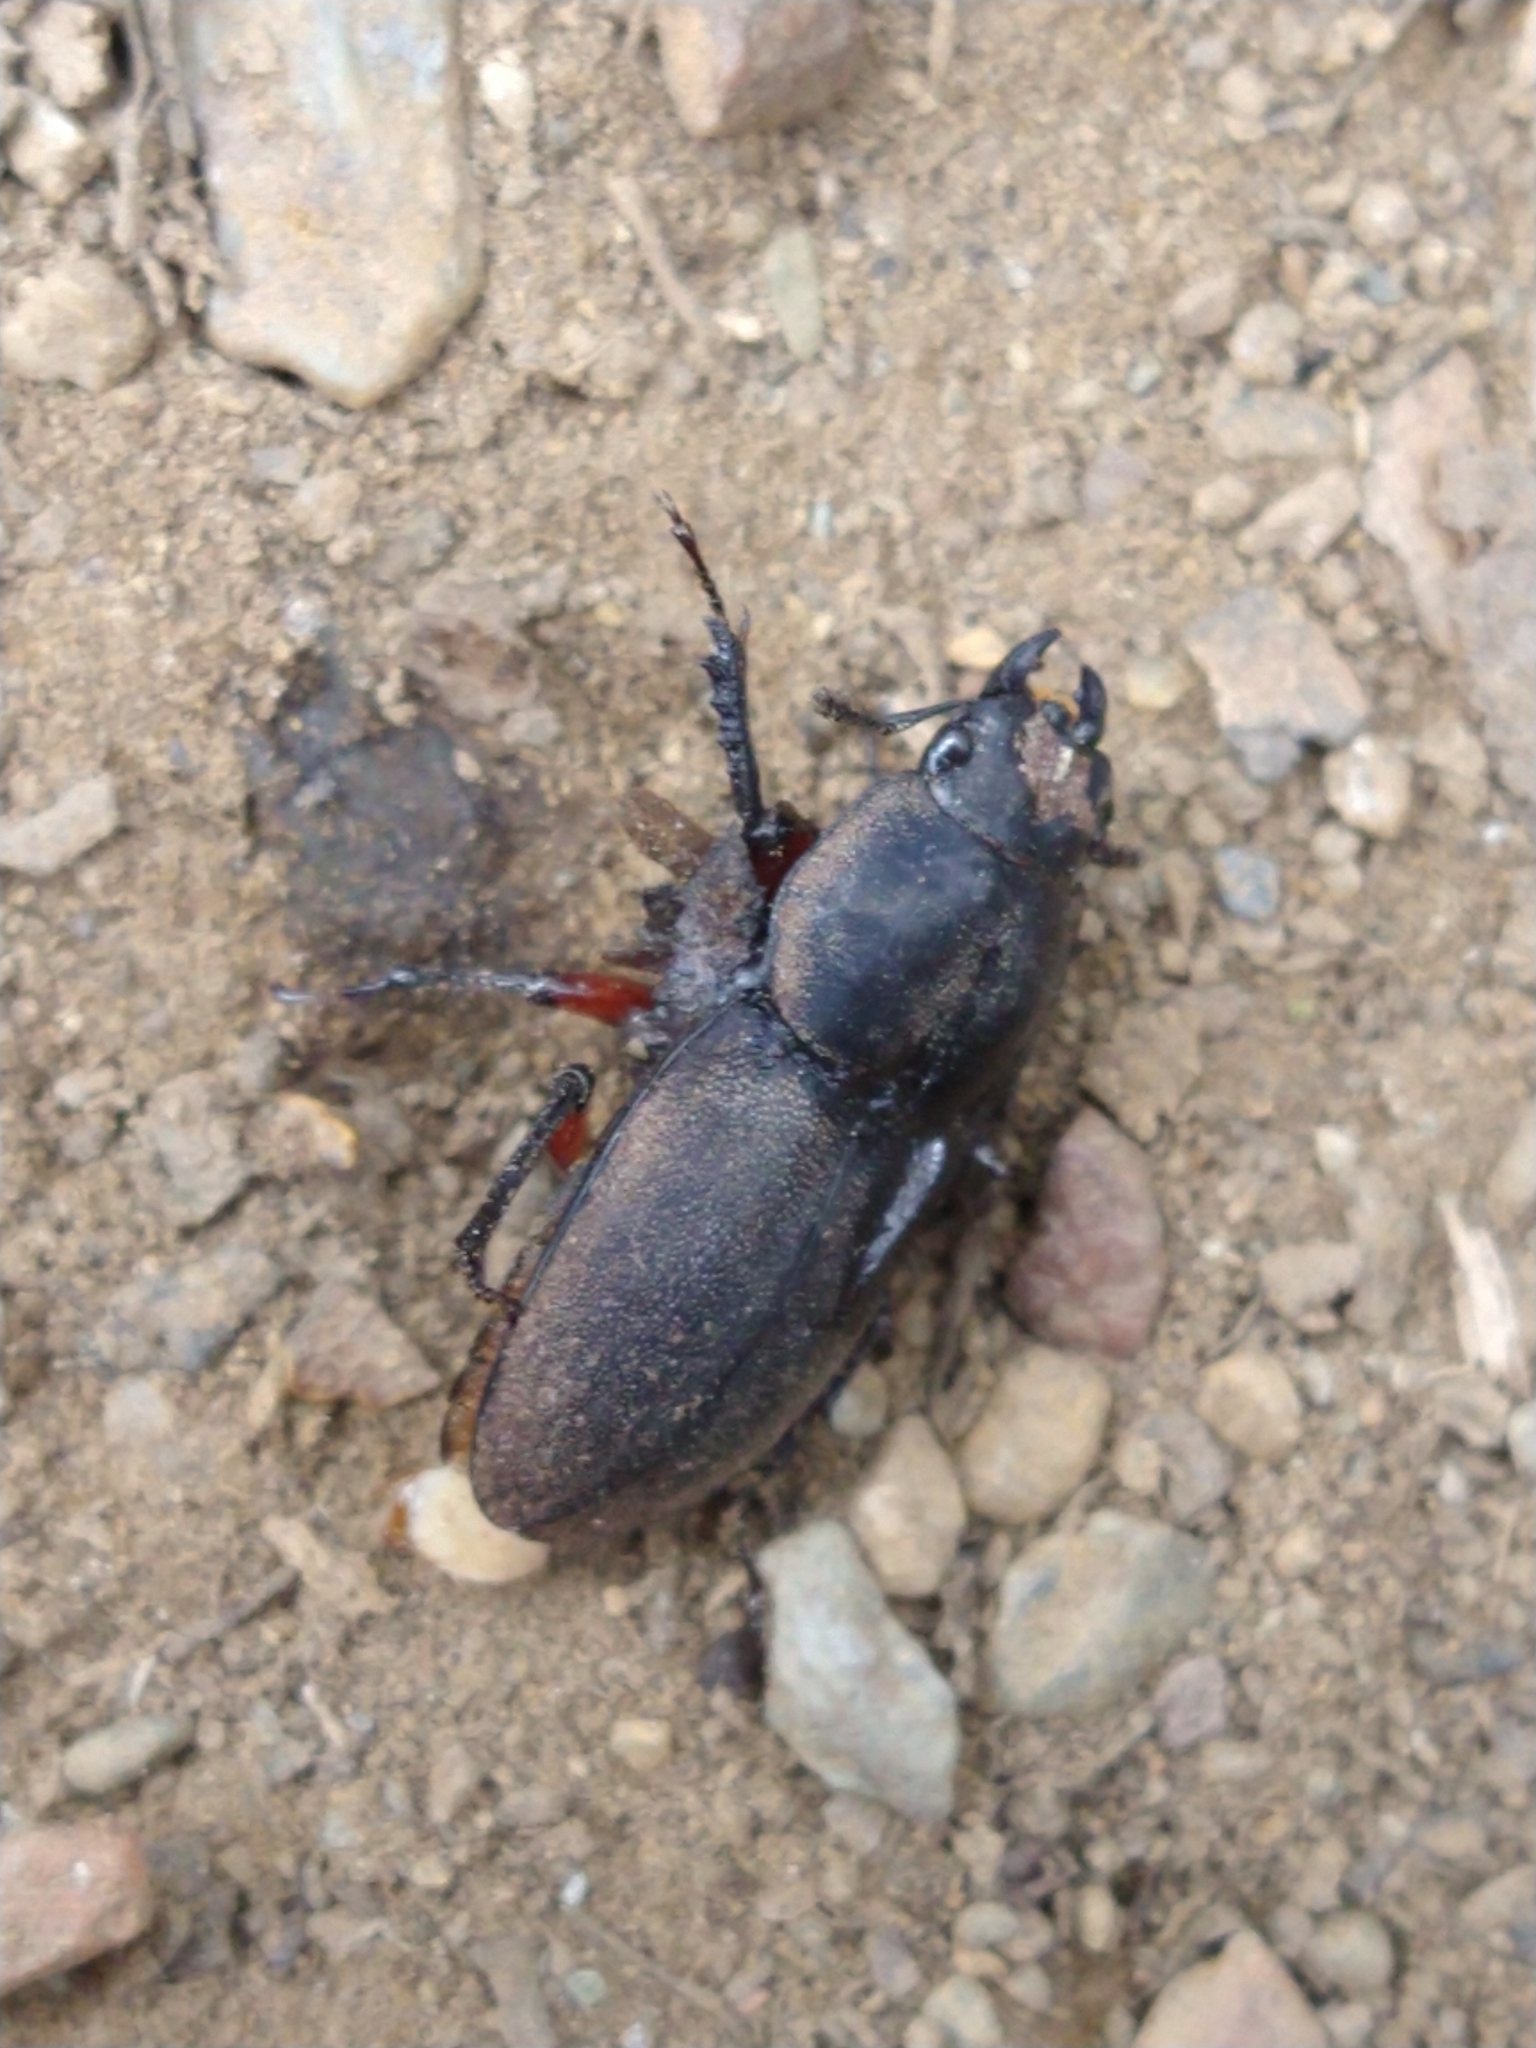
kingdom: Animalia
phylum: Arthropoda
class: Insecta
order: Coleoptera
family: Lucanidae
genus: Erichius
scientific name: Erichius femoralis
